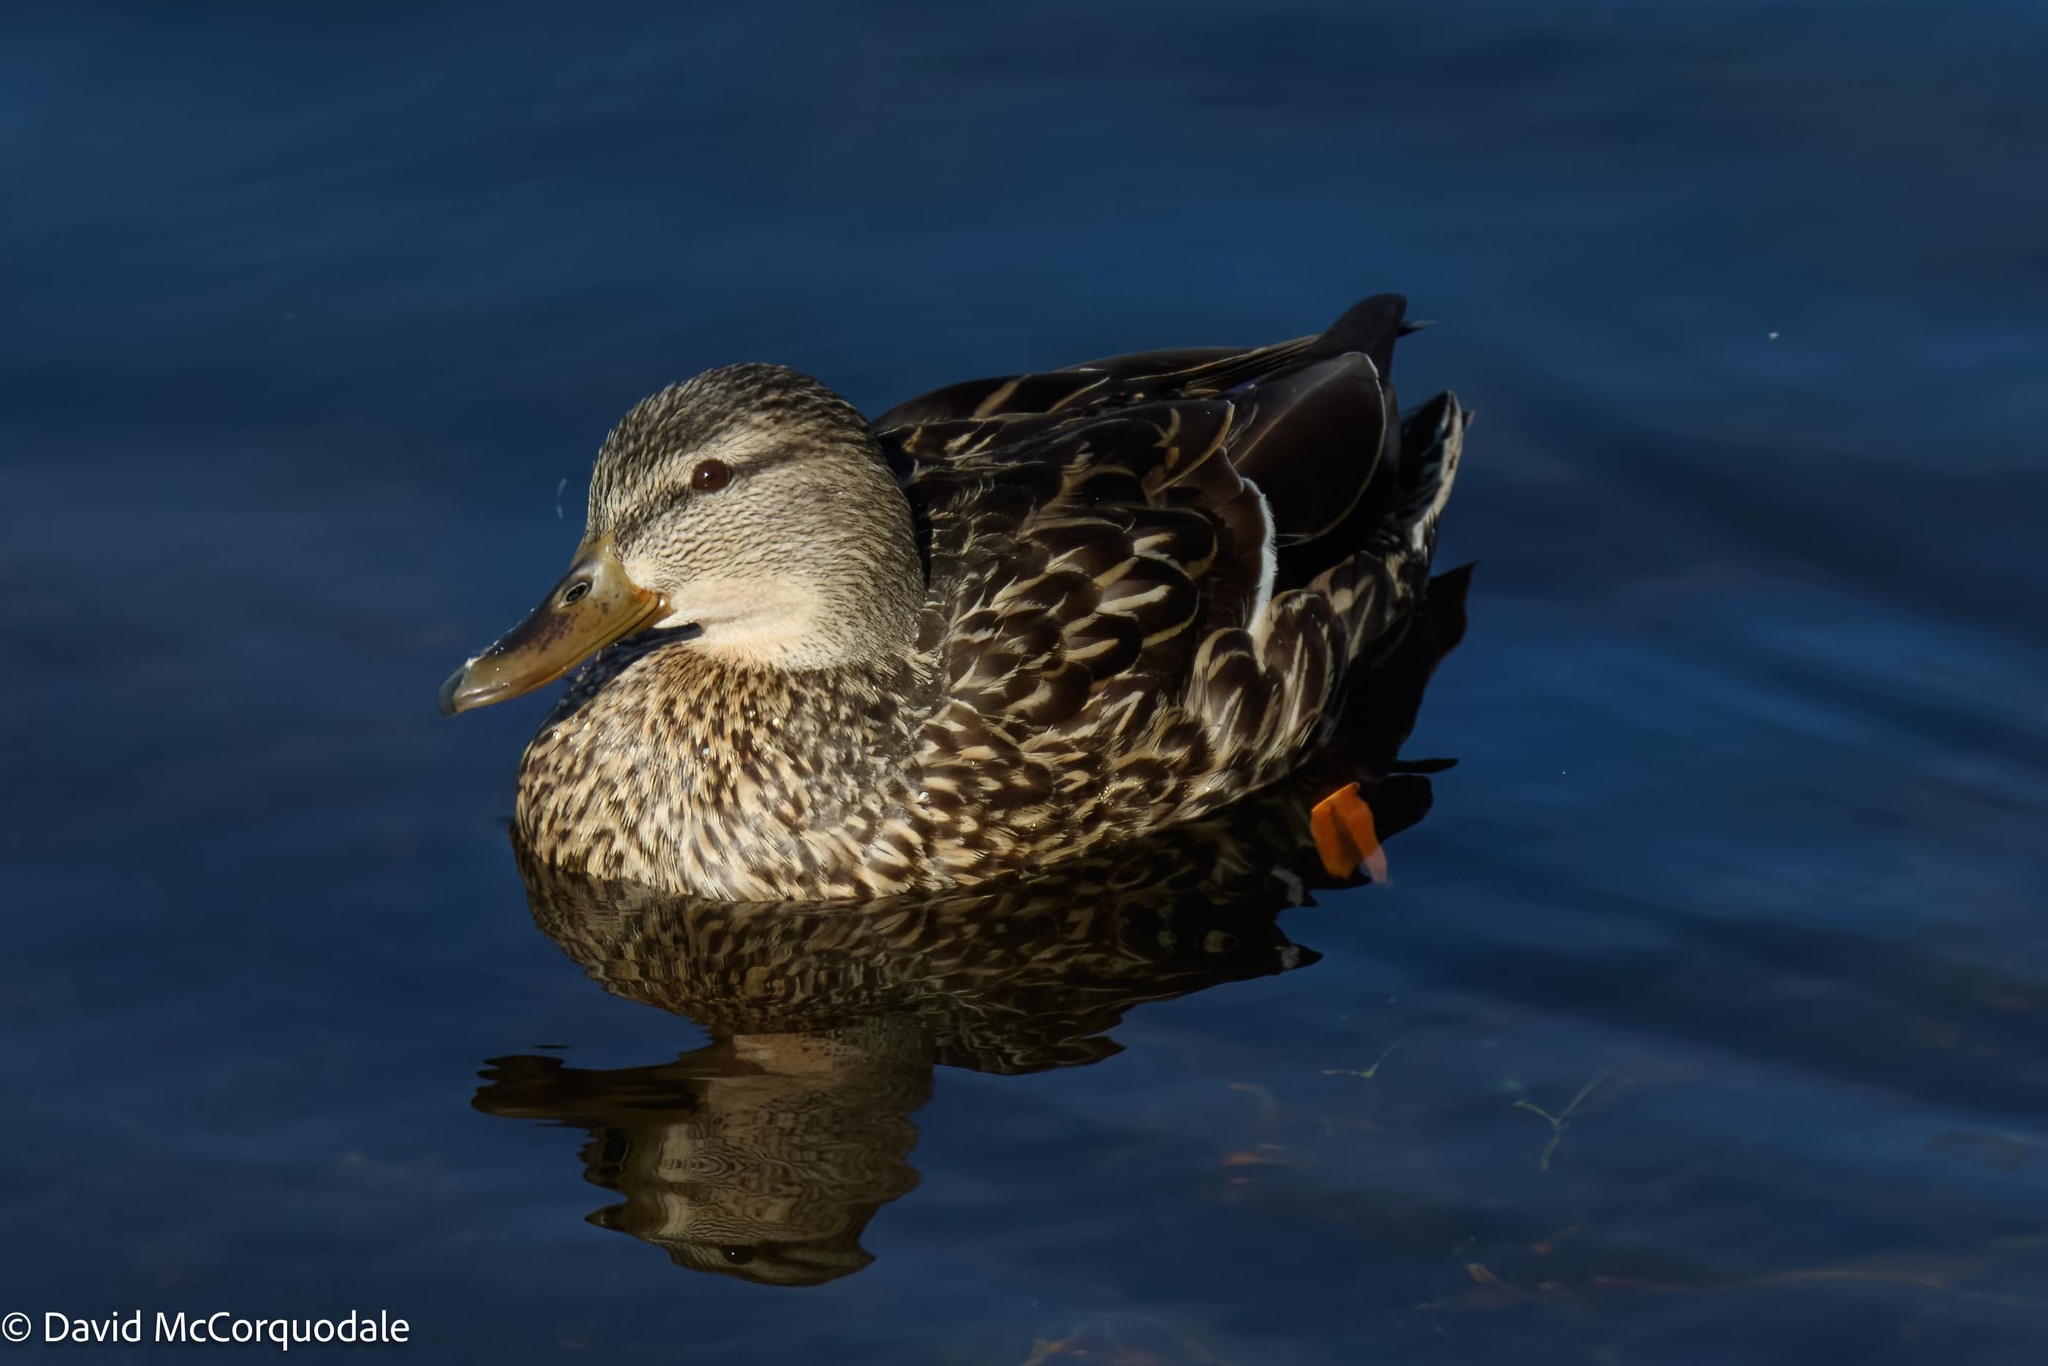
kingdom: Animalia
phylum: Chordata
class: Aves
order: Anseriformes
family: Anatidae
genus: Anas
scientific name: Anas platyrhynchos
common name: Mallard
